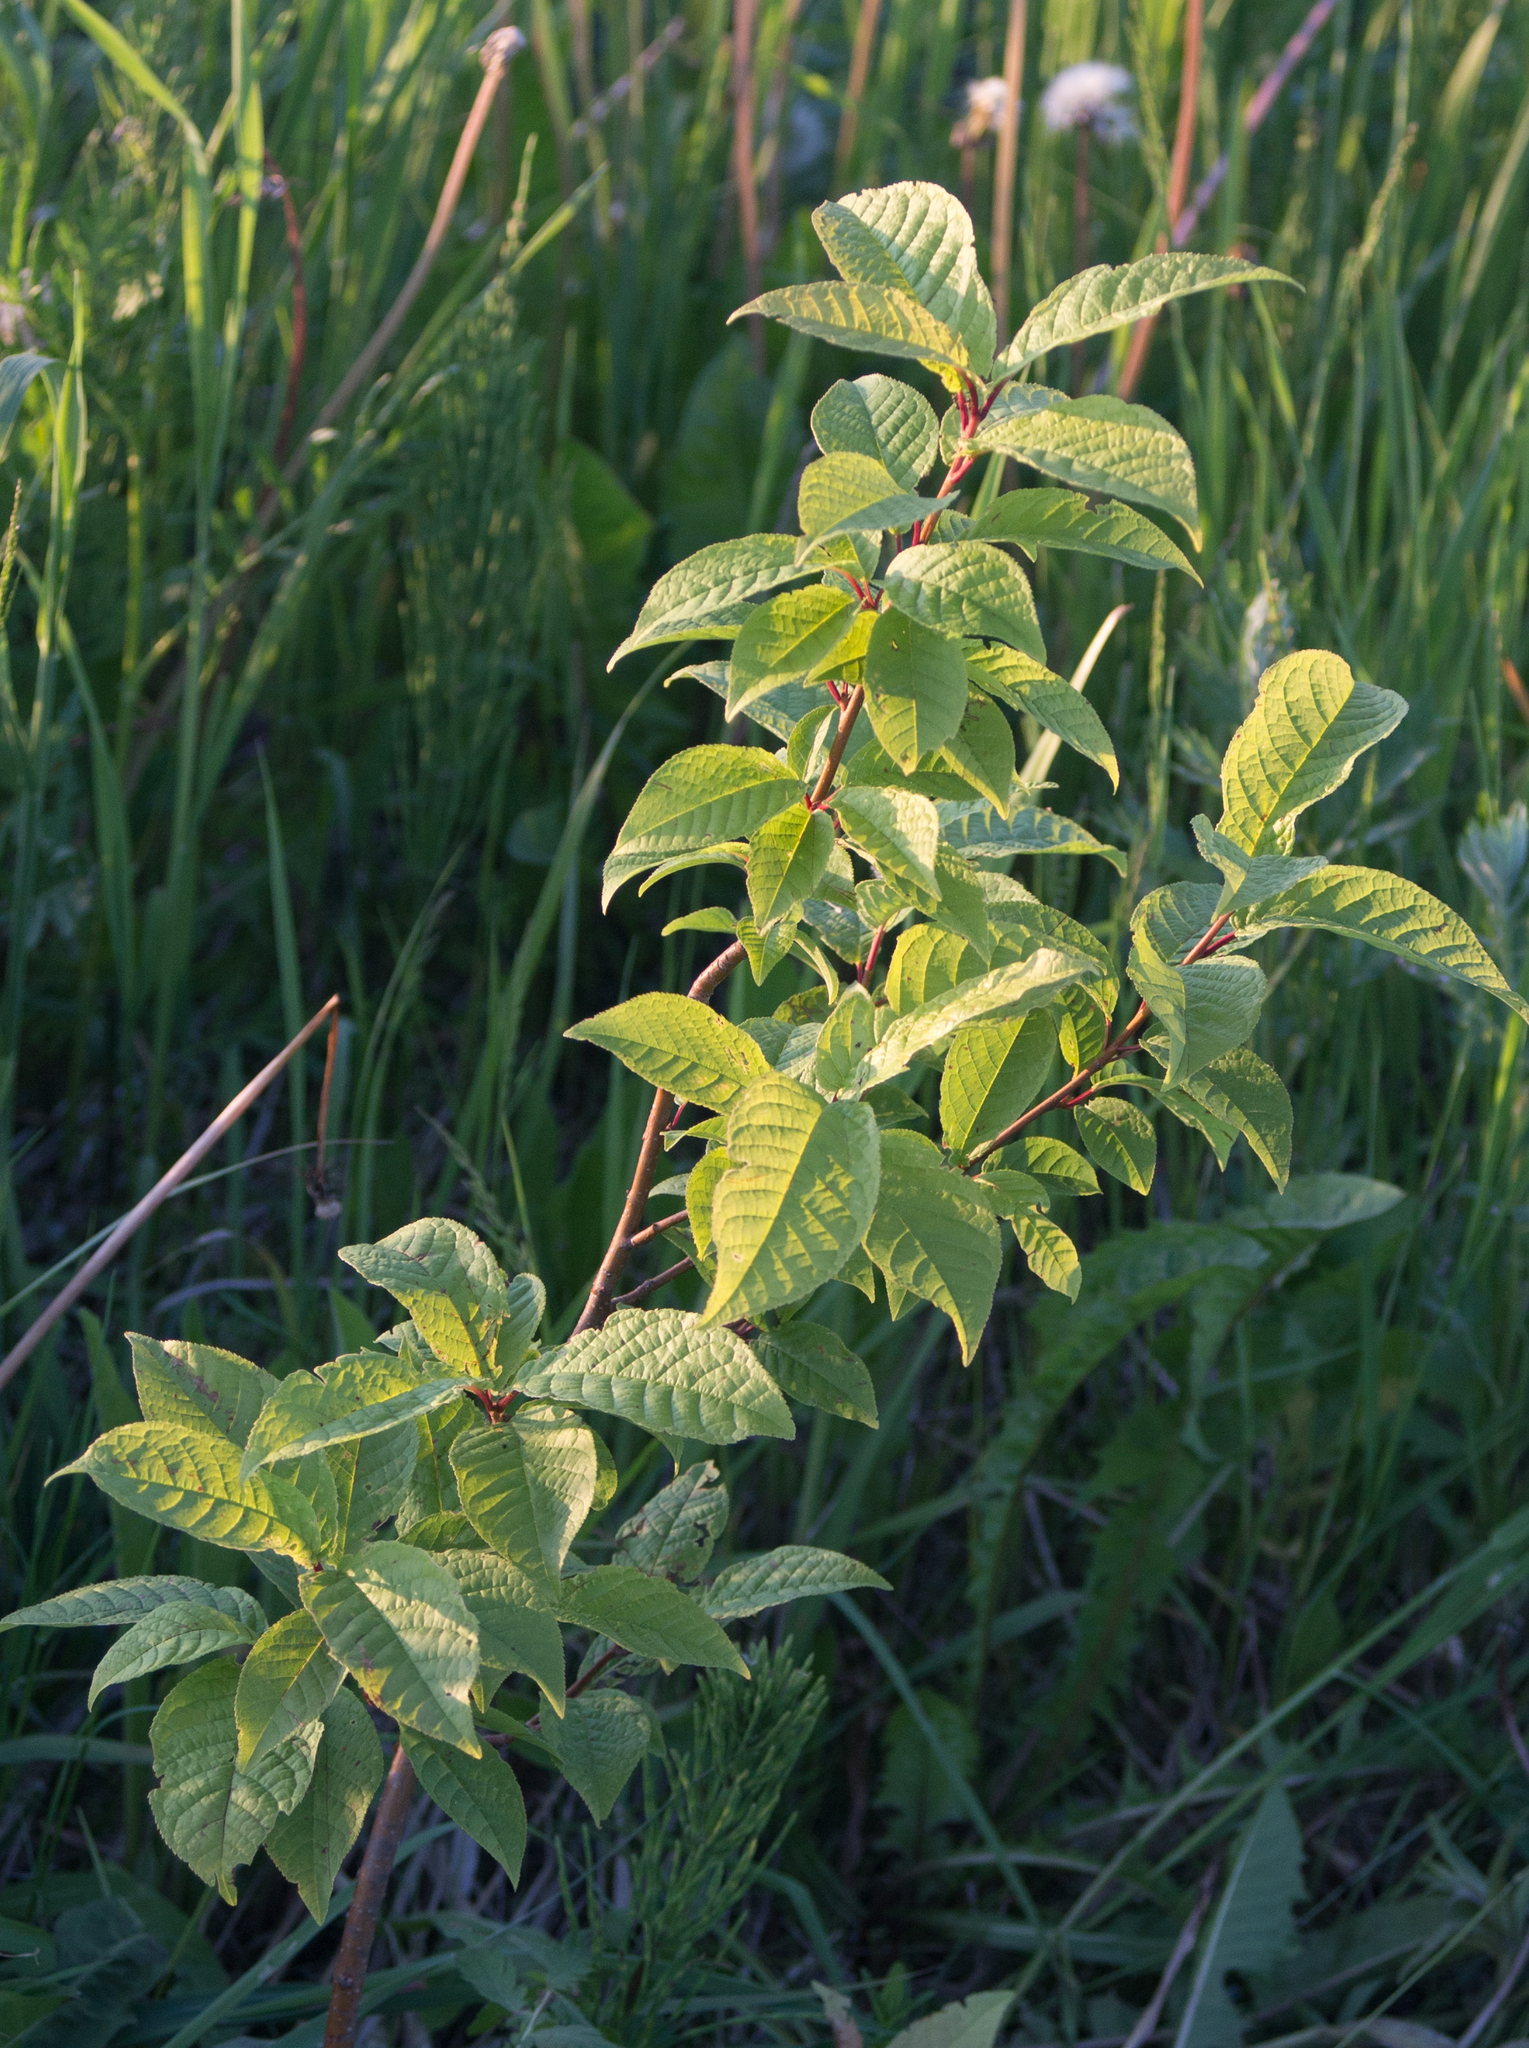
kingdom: Plantae
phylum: Tracheophyta
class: Magnoliopsida
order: Rosales
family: Rosaceae
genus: Prunus
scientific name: Prunus padus
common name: Bird cherry
